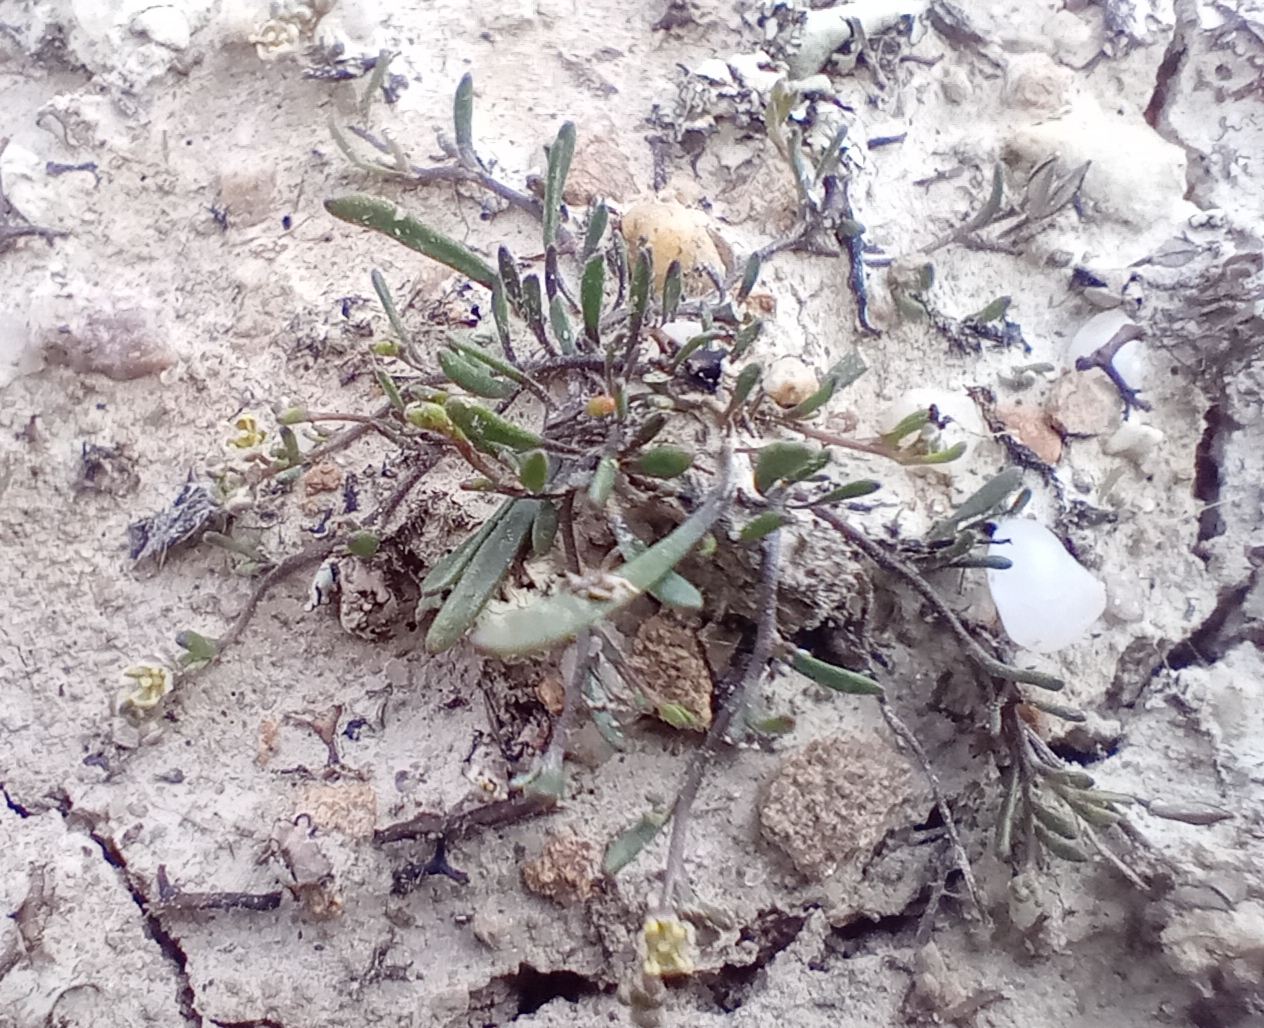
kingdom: Plantae
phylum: Tracheophyta
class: Magnoliopsida
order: Brassicales
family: Brassicaceae
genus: Lepidium
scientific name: Lepidium kirkii
